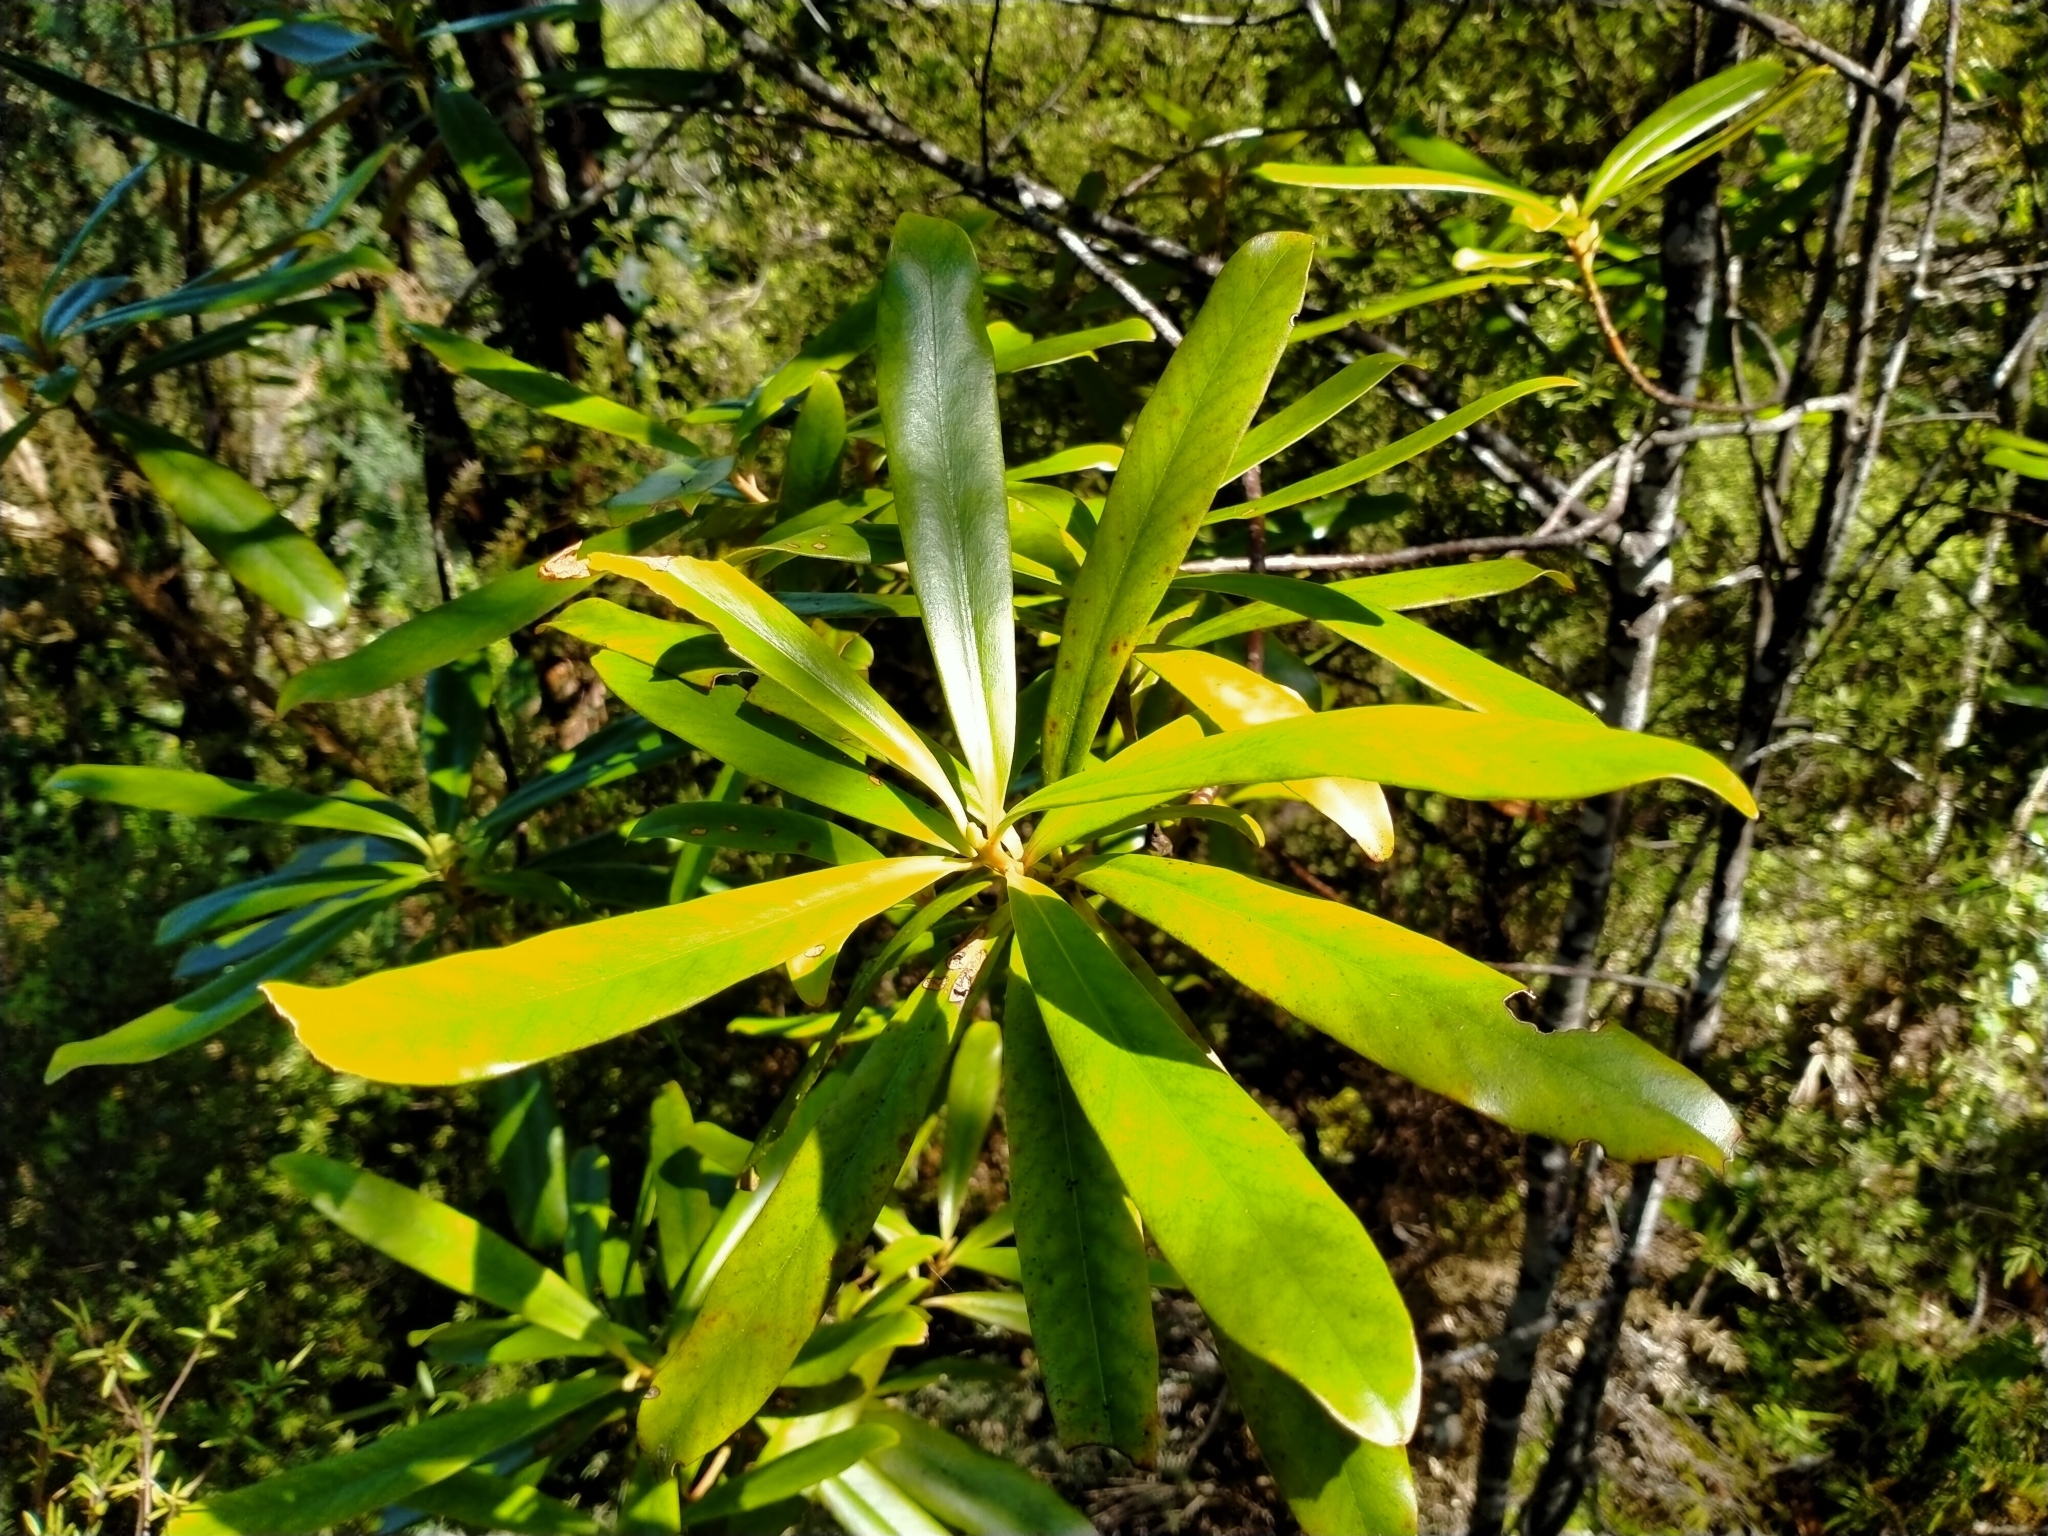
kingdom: Plantae
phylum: Tracheophyta
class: Magnoliopsida
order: Ericales
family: Primulaceae
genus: Myrsine
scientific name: Myrsine salicina
